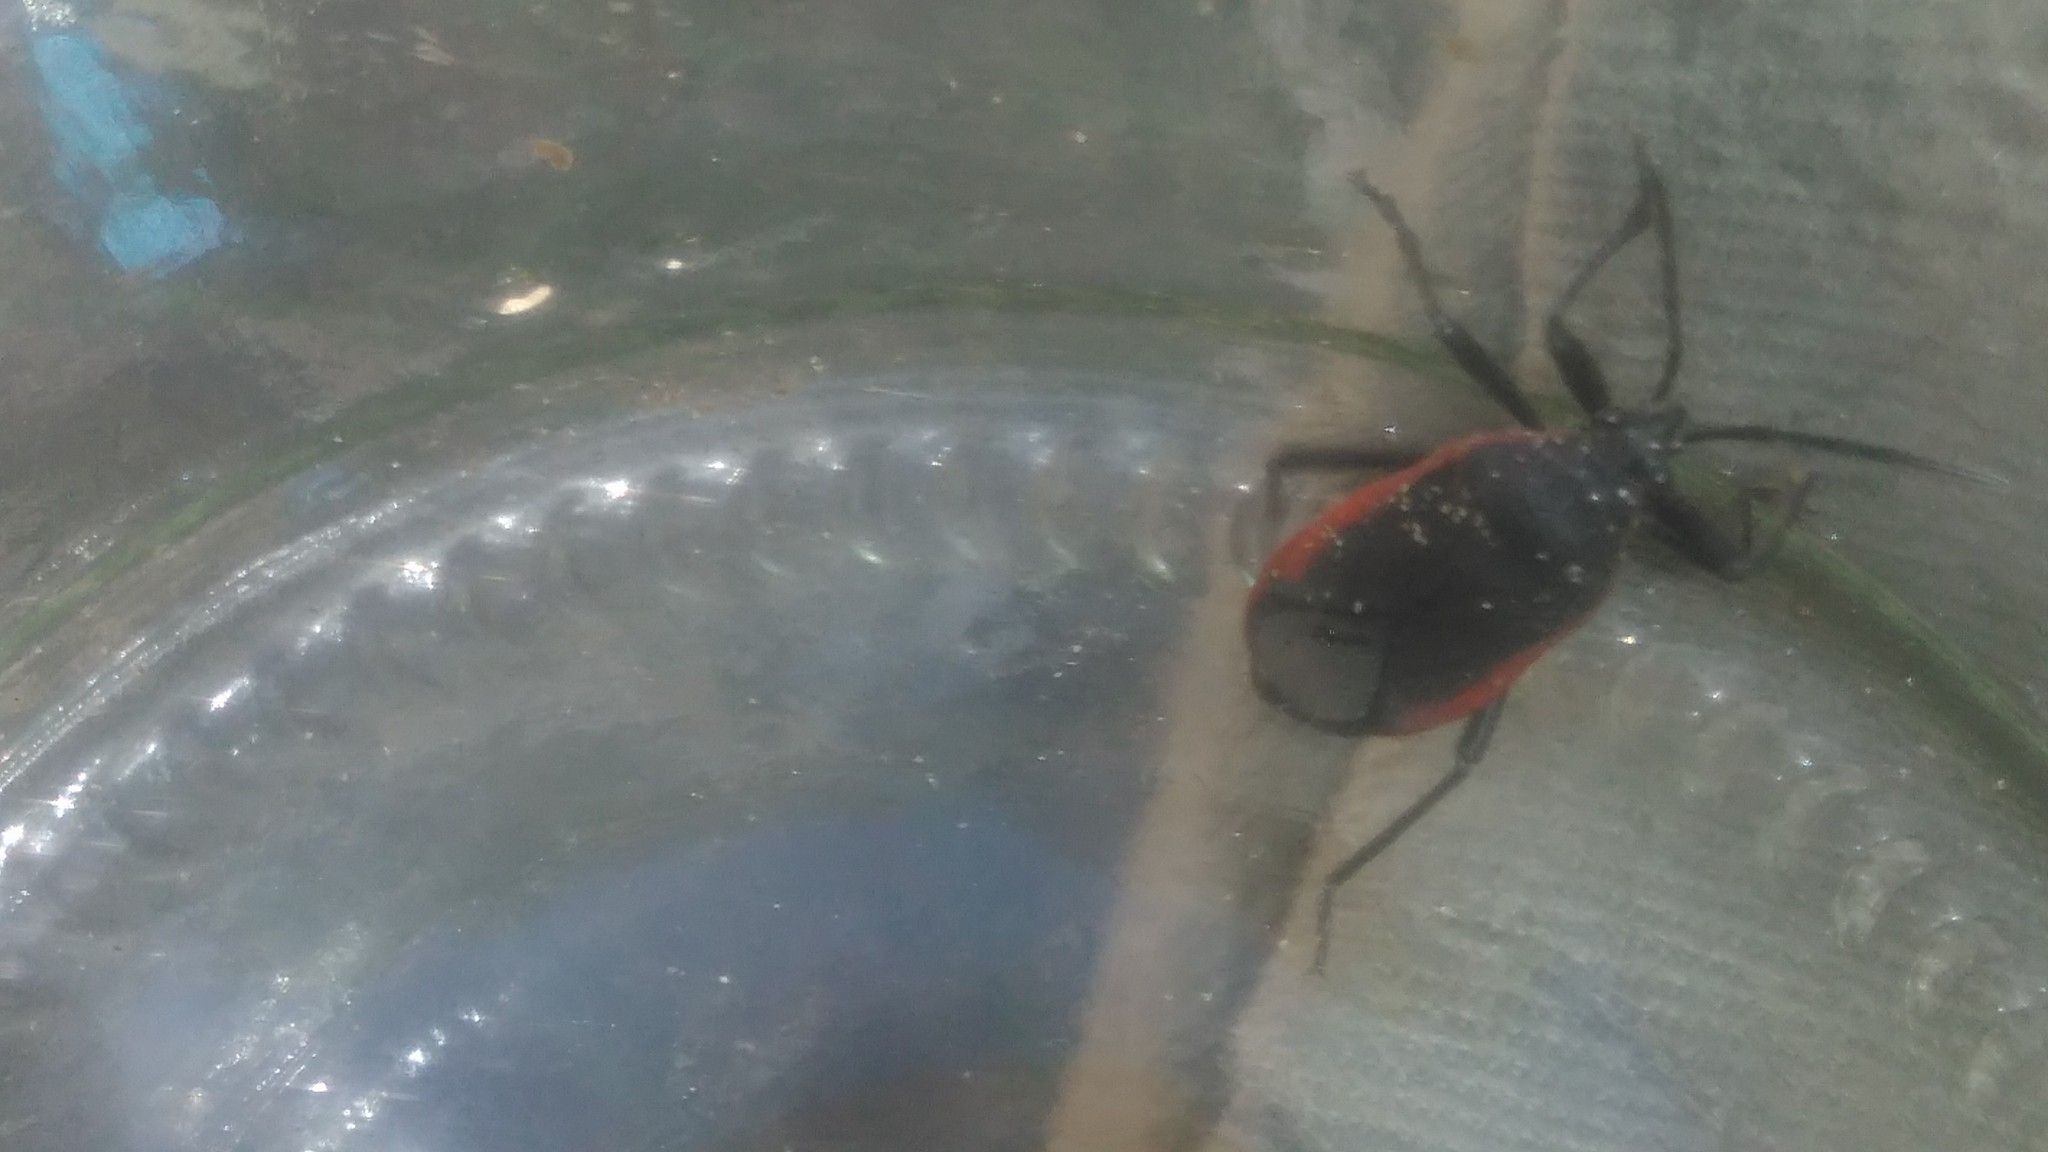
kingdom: Animalia
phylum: Arthropoda
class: Insecta
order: Hemiptera
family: Largidae
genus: Largus
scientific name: Largus rufipennis
